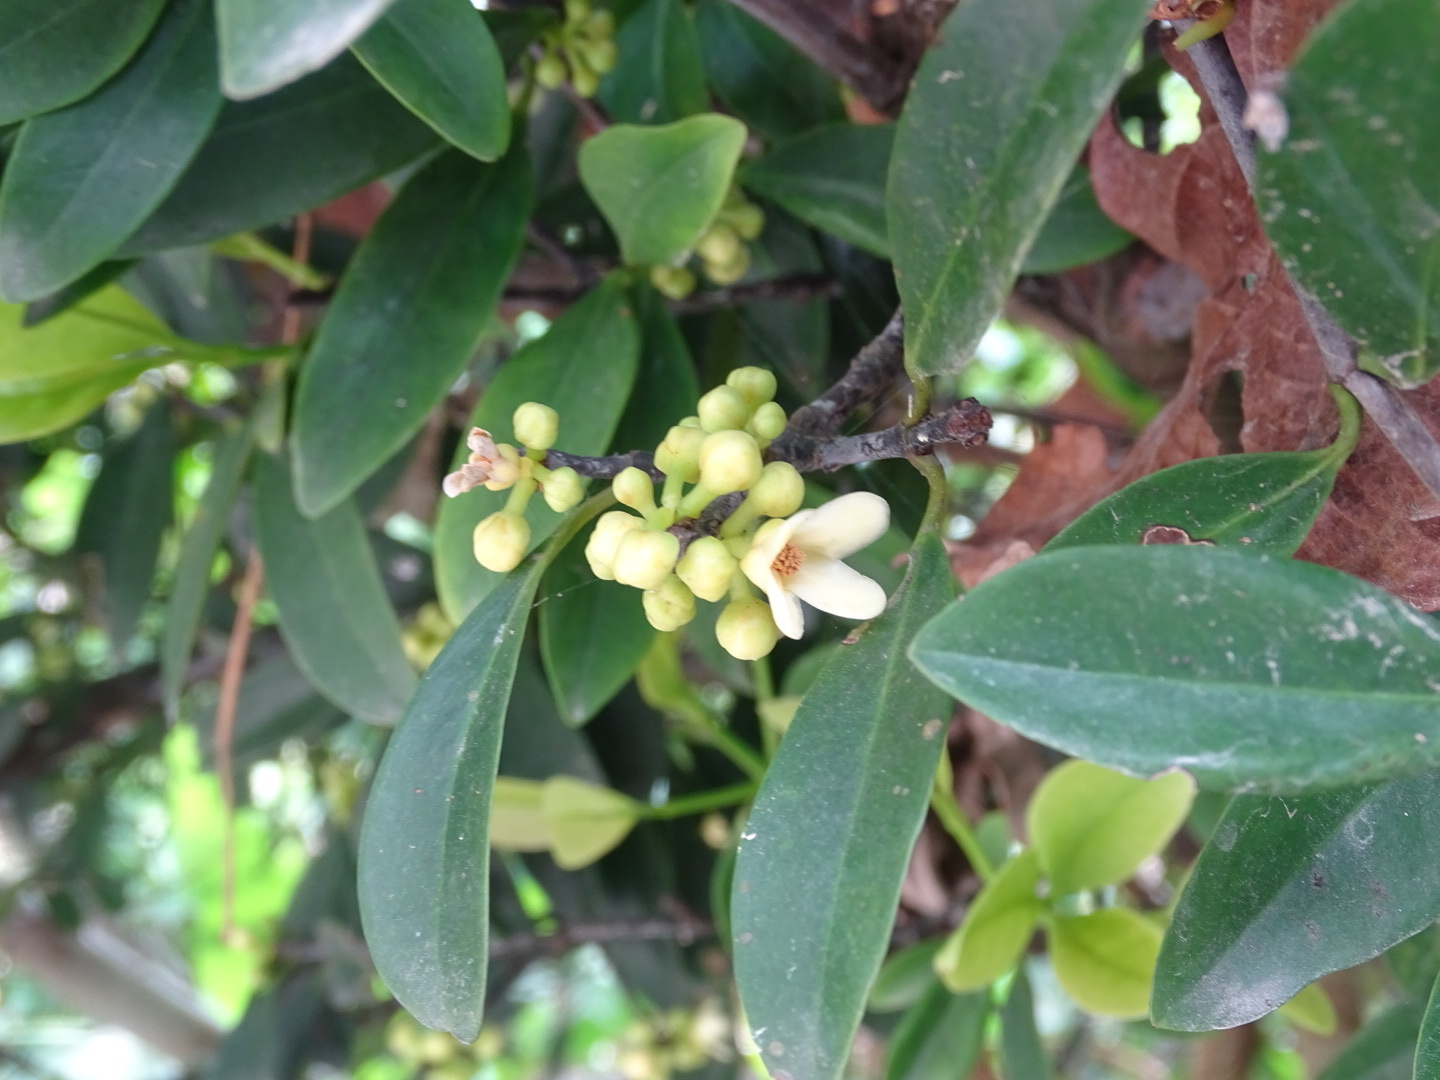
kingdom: Plantae
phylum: Tracheophyta
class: Magnoliopsida
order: Malpighiales
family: Clusiaceae
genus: Garcinia
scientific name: Garcinia oblongifolia
